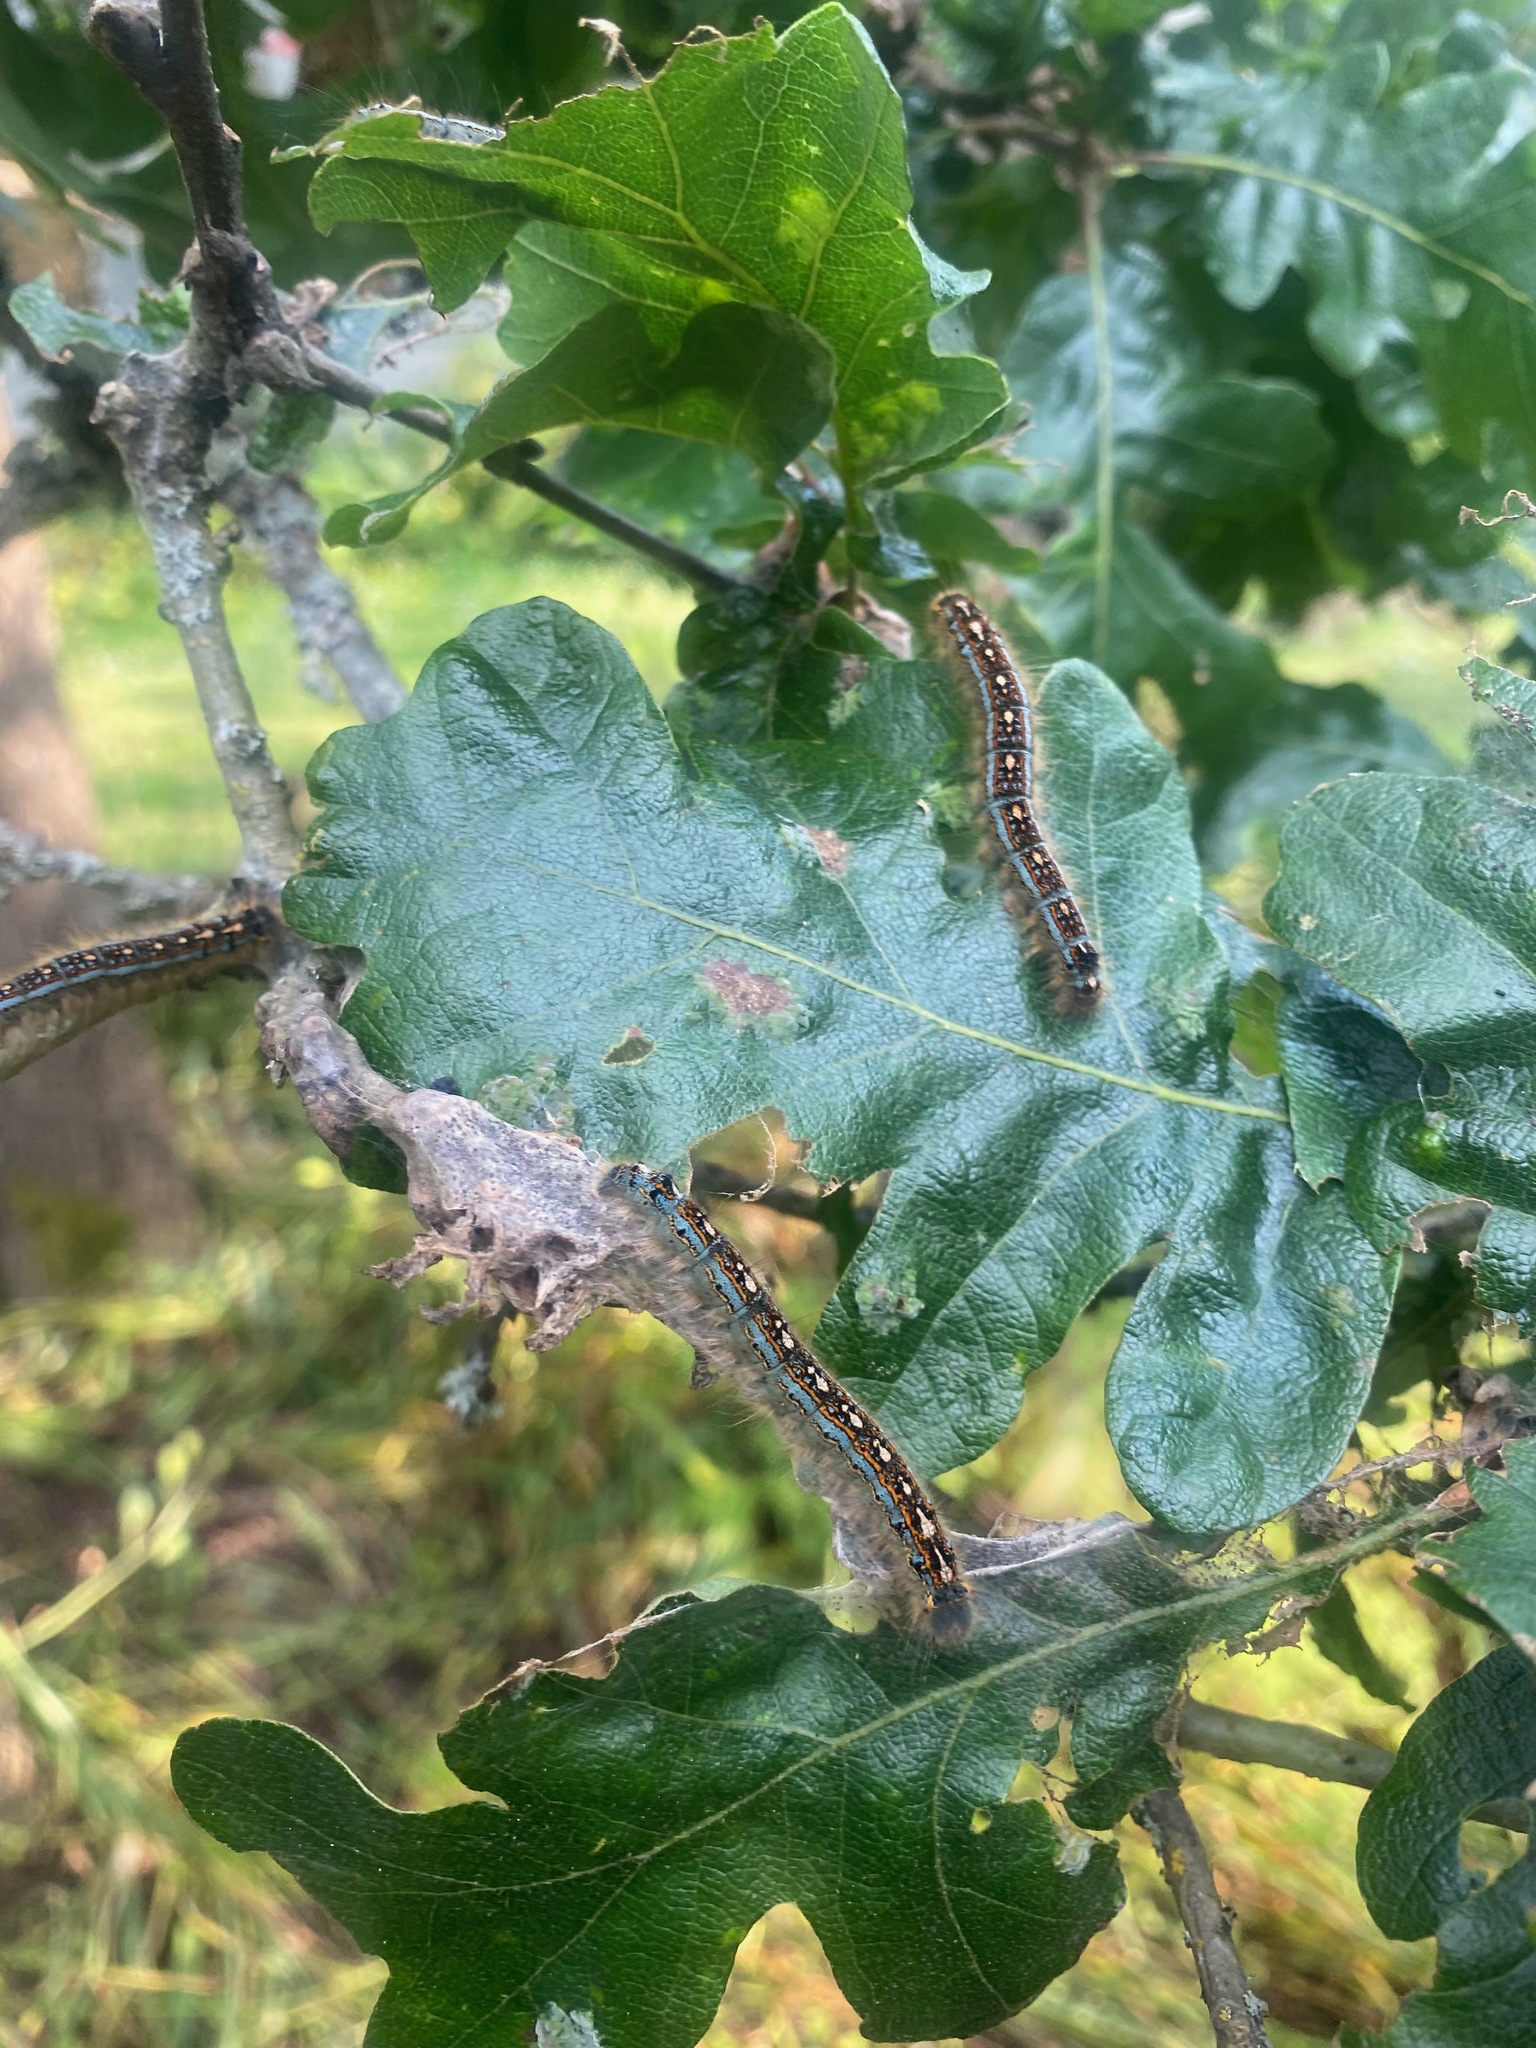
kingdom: Animalia
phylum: Arthropoda
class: Insecta
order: Lepidoptera
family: Lasiocampidae
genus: Malacosoma
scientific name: Malacosoma disstria
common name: Forest tent caterpillar
